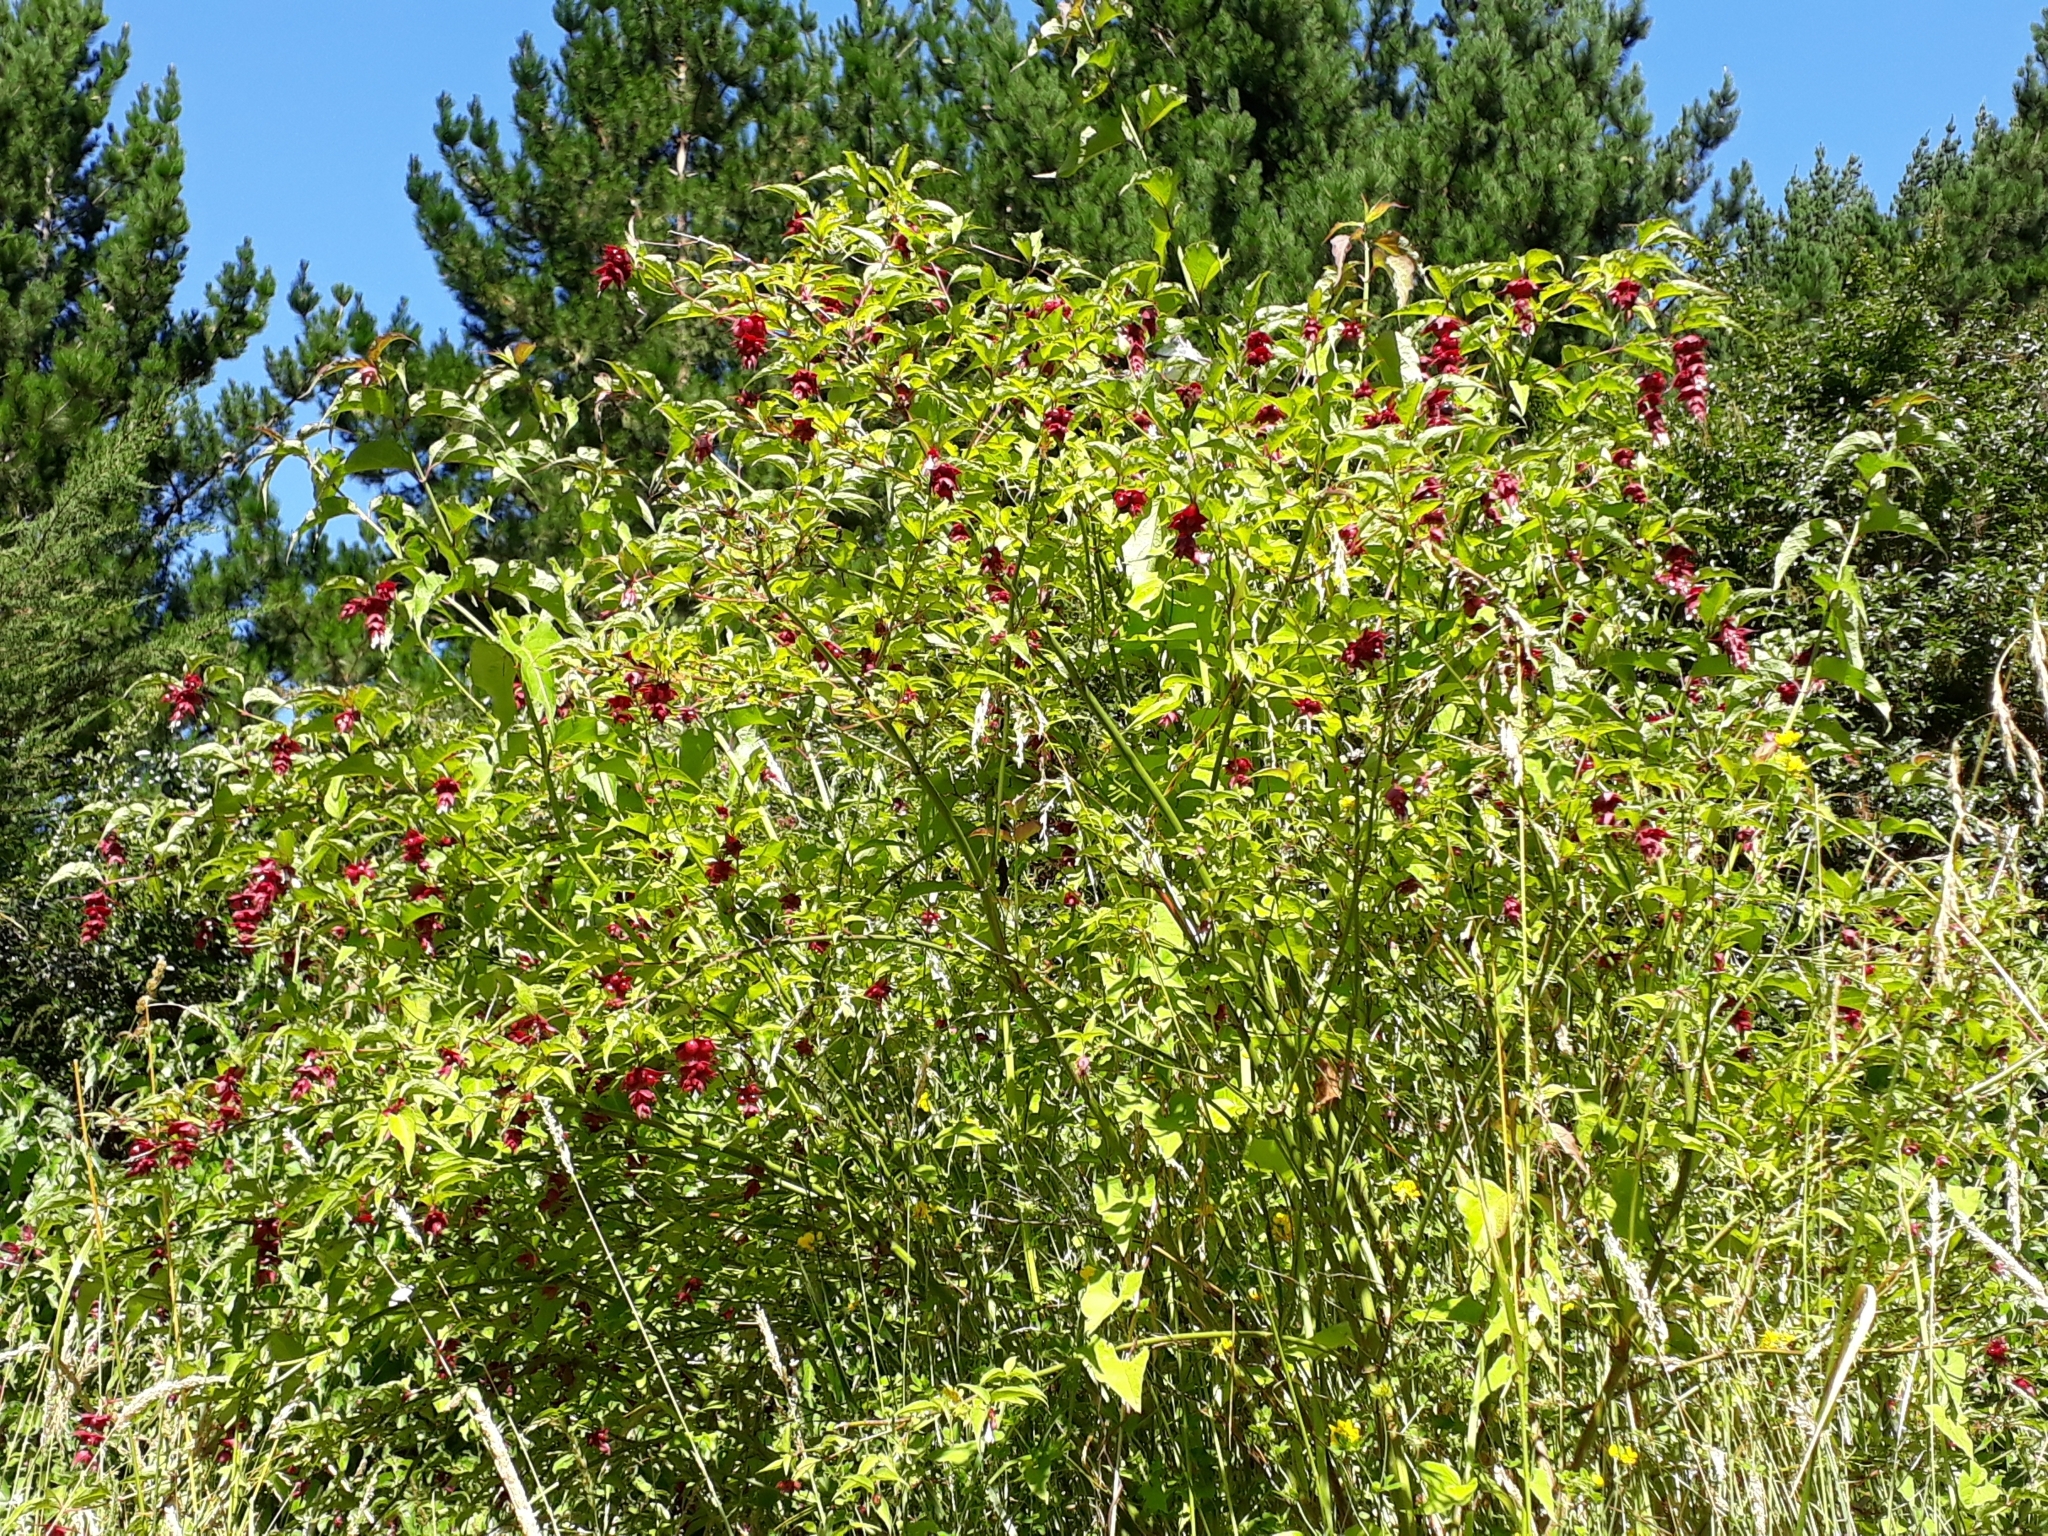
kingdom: Plantae
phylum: Tracheophyta
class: Magnoliopsida
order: Dipsacales
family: Caprifoliaceae
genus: Leycesteria
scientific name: Leycesteria formosa
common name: Himalayan honeysuckle
